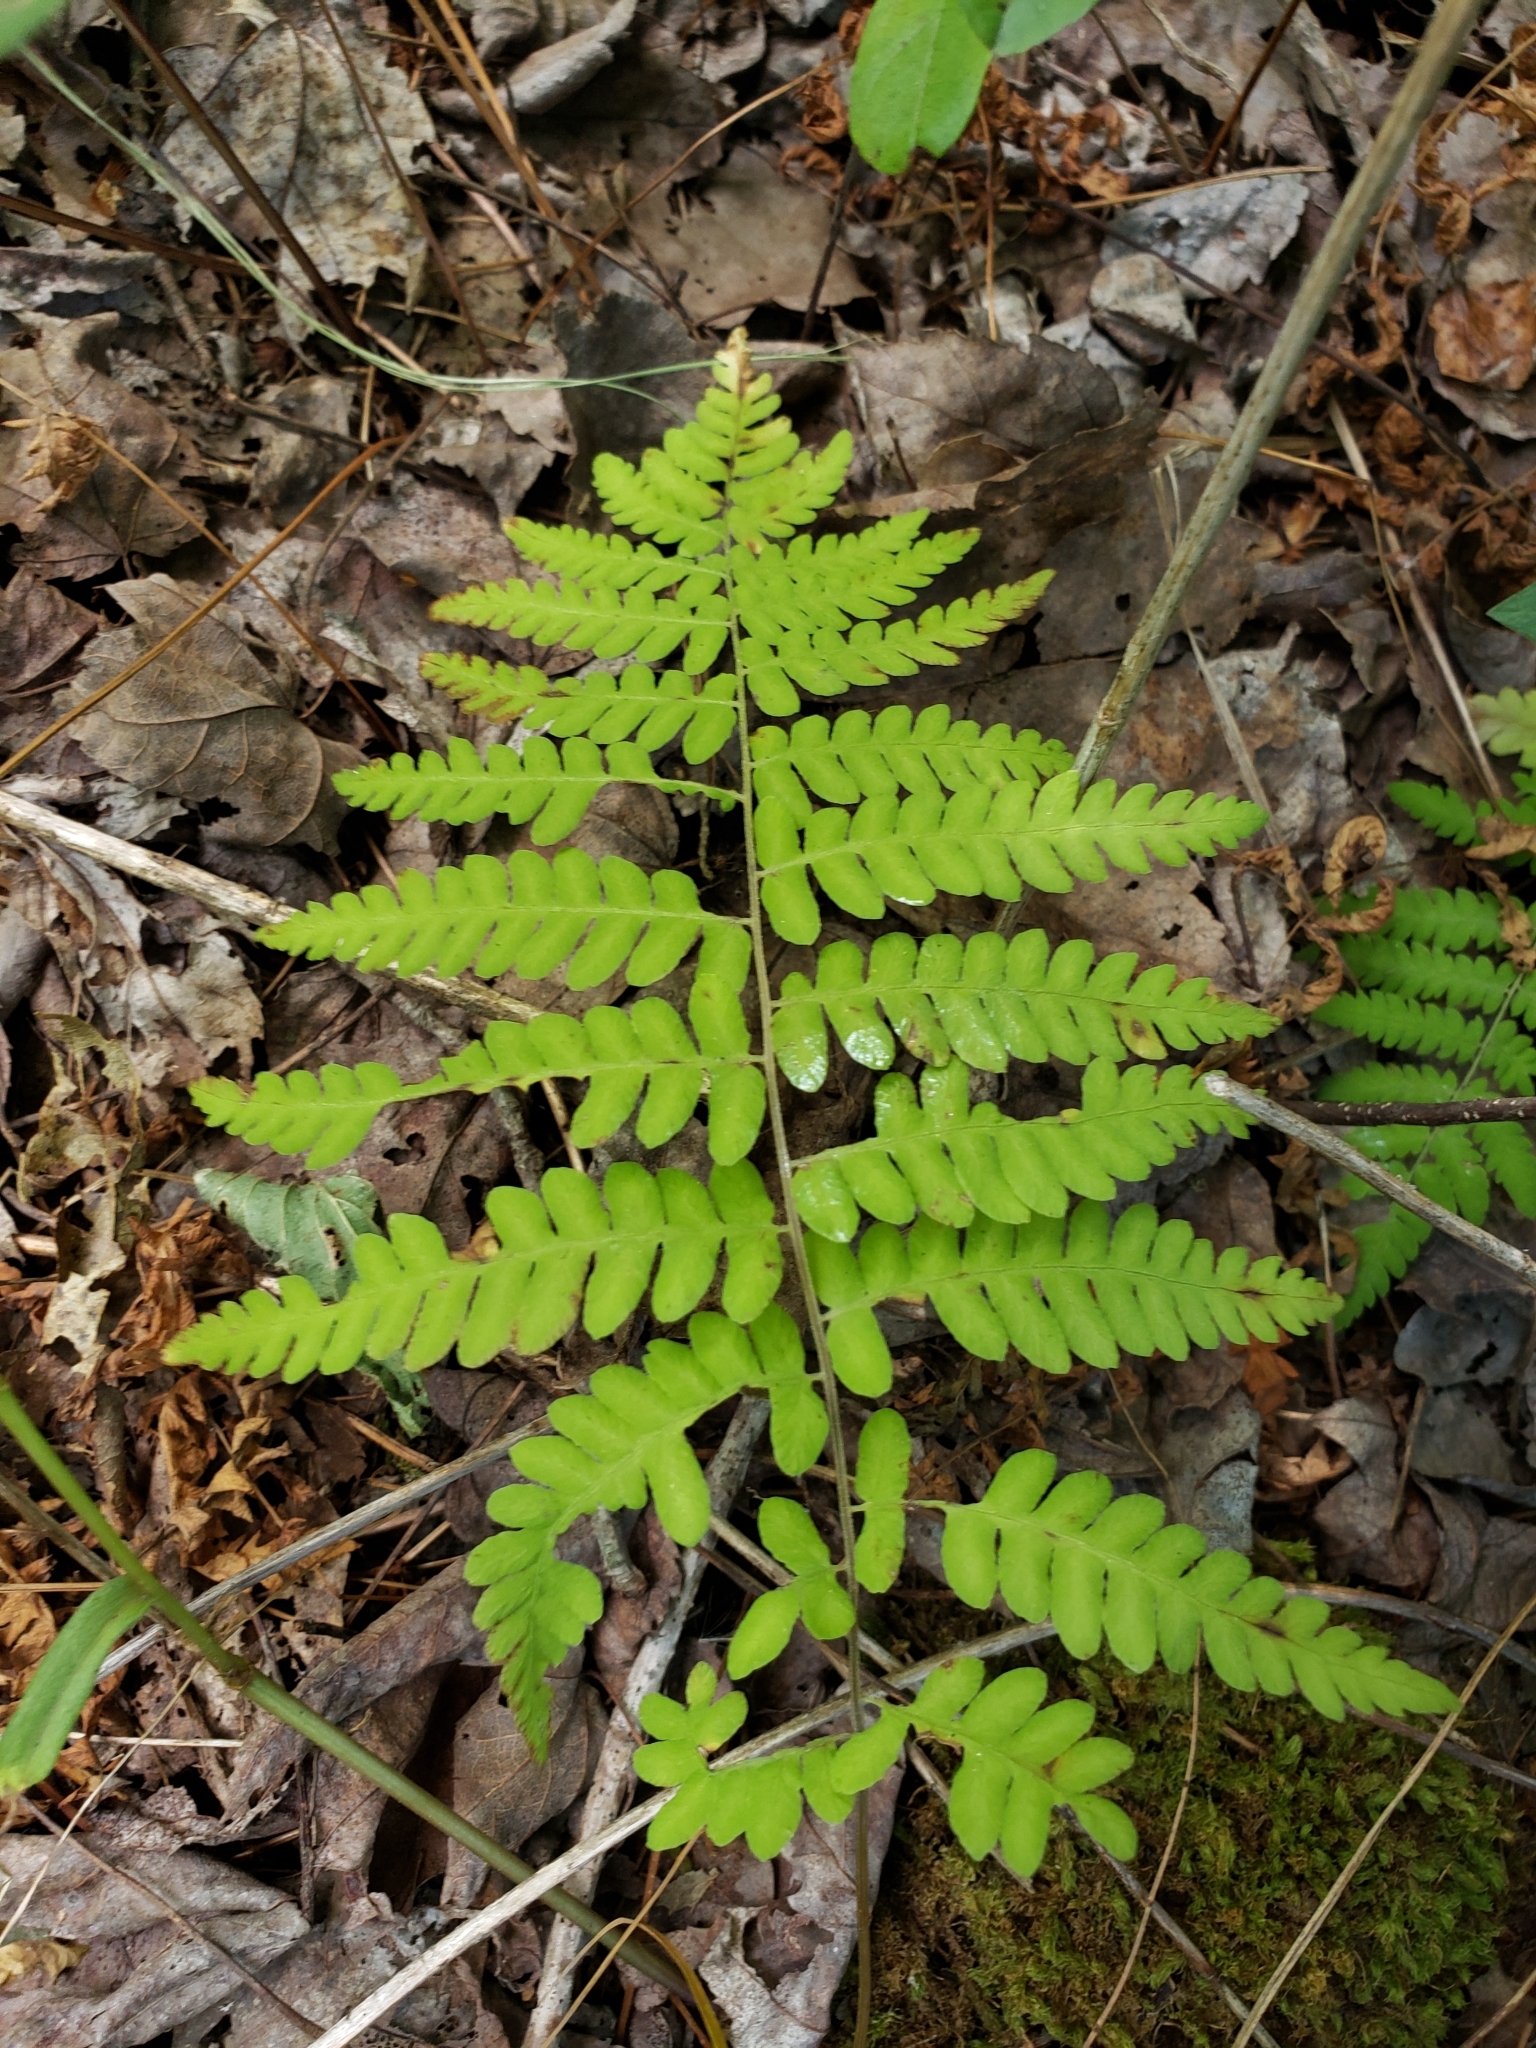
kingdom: Plantae
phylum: Tracheophyta
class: Polypodiopsida
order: Polypodiales
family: Thelypteridaceae
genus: Thelypteris
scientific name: Thelypteris palustris
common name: Marsh fern
